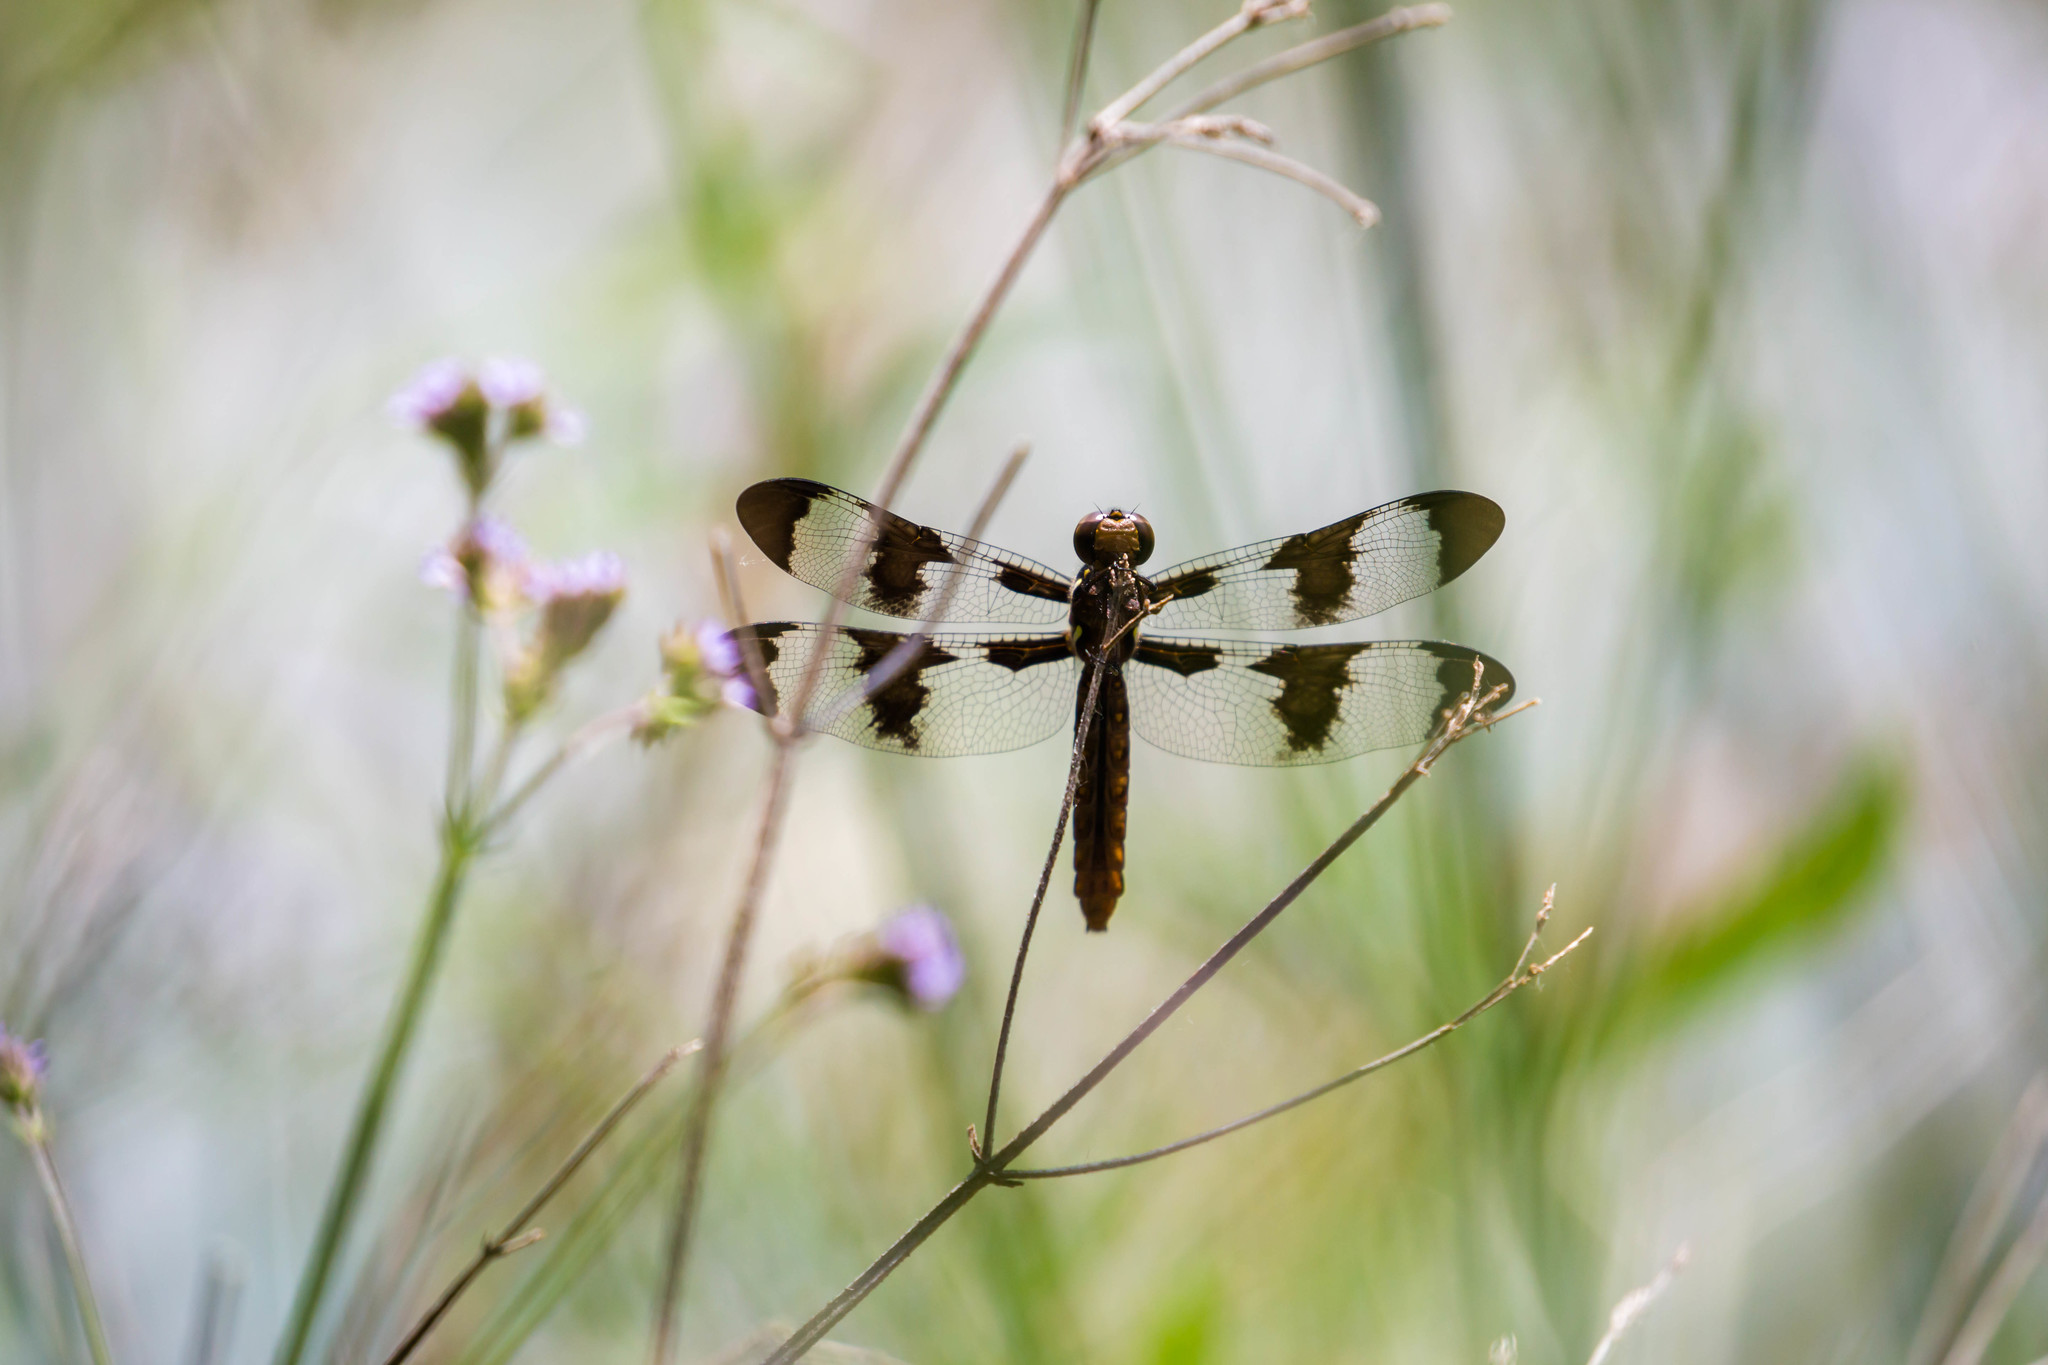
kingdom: Animalia
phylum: Arthropoda
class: Insecta
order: Odonata
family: Libellulidae
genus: Plathemis
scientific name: Plathemis lydia
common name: Common whitetail
